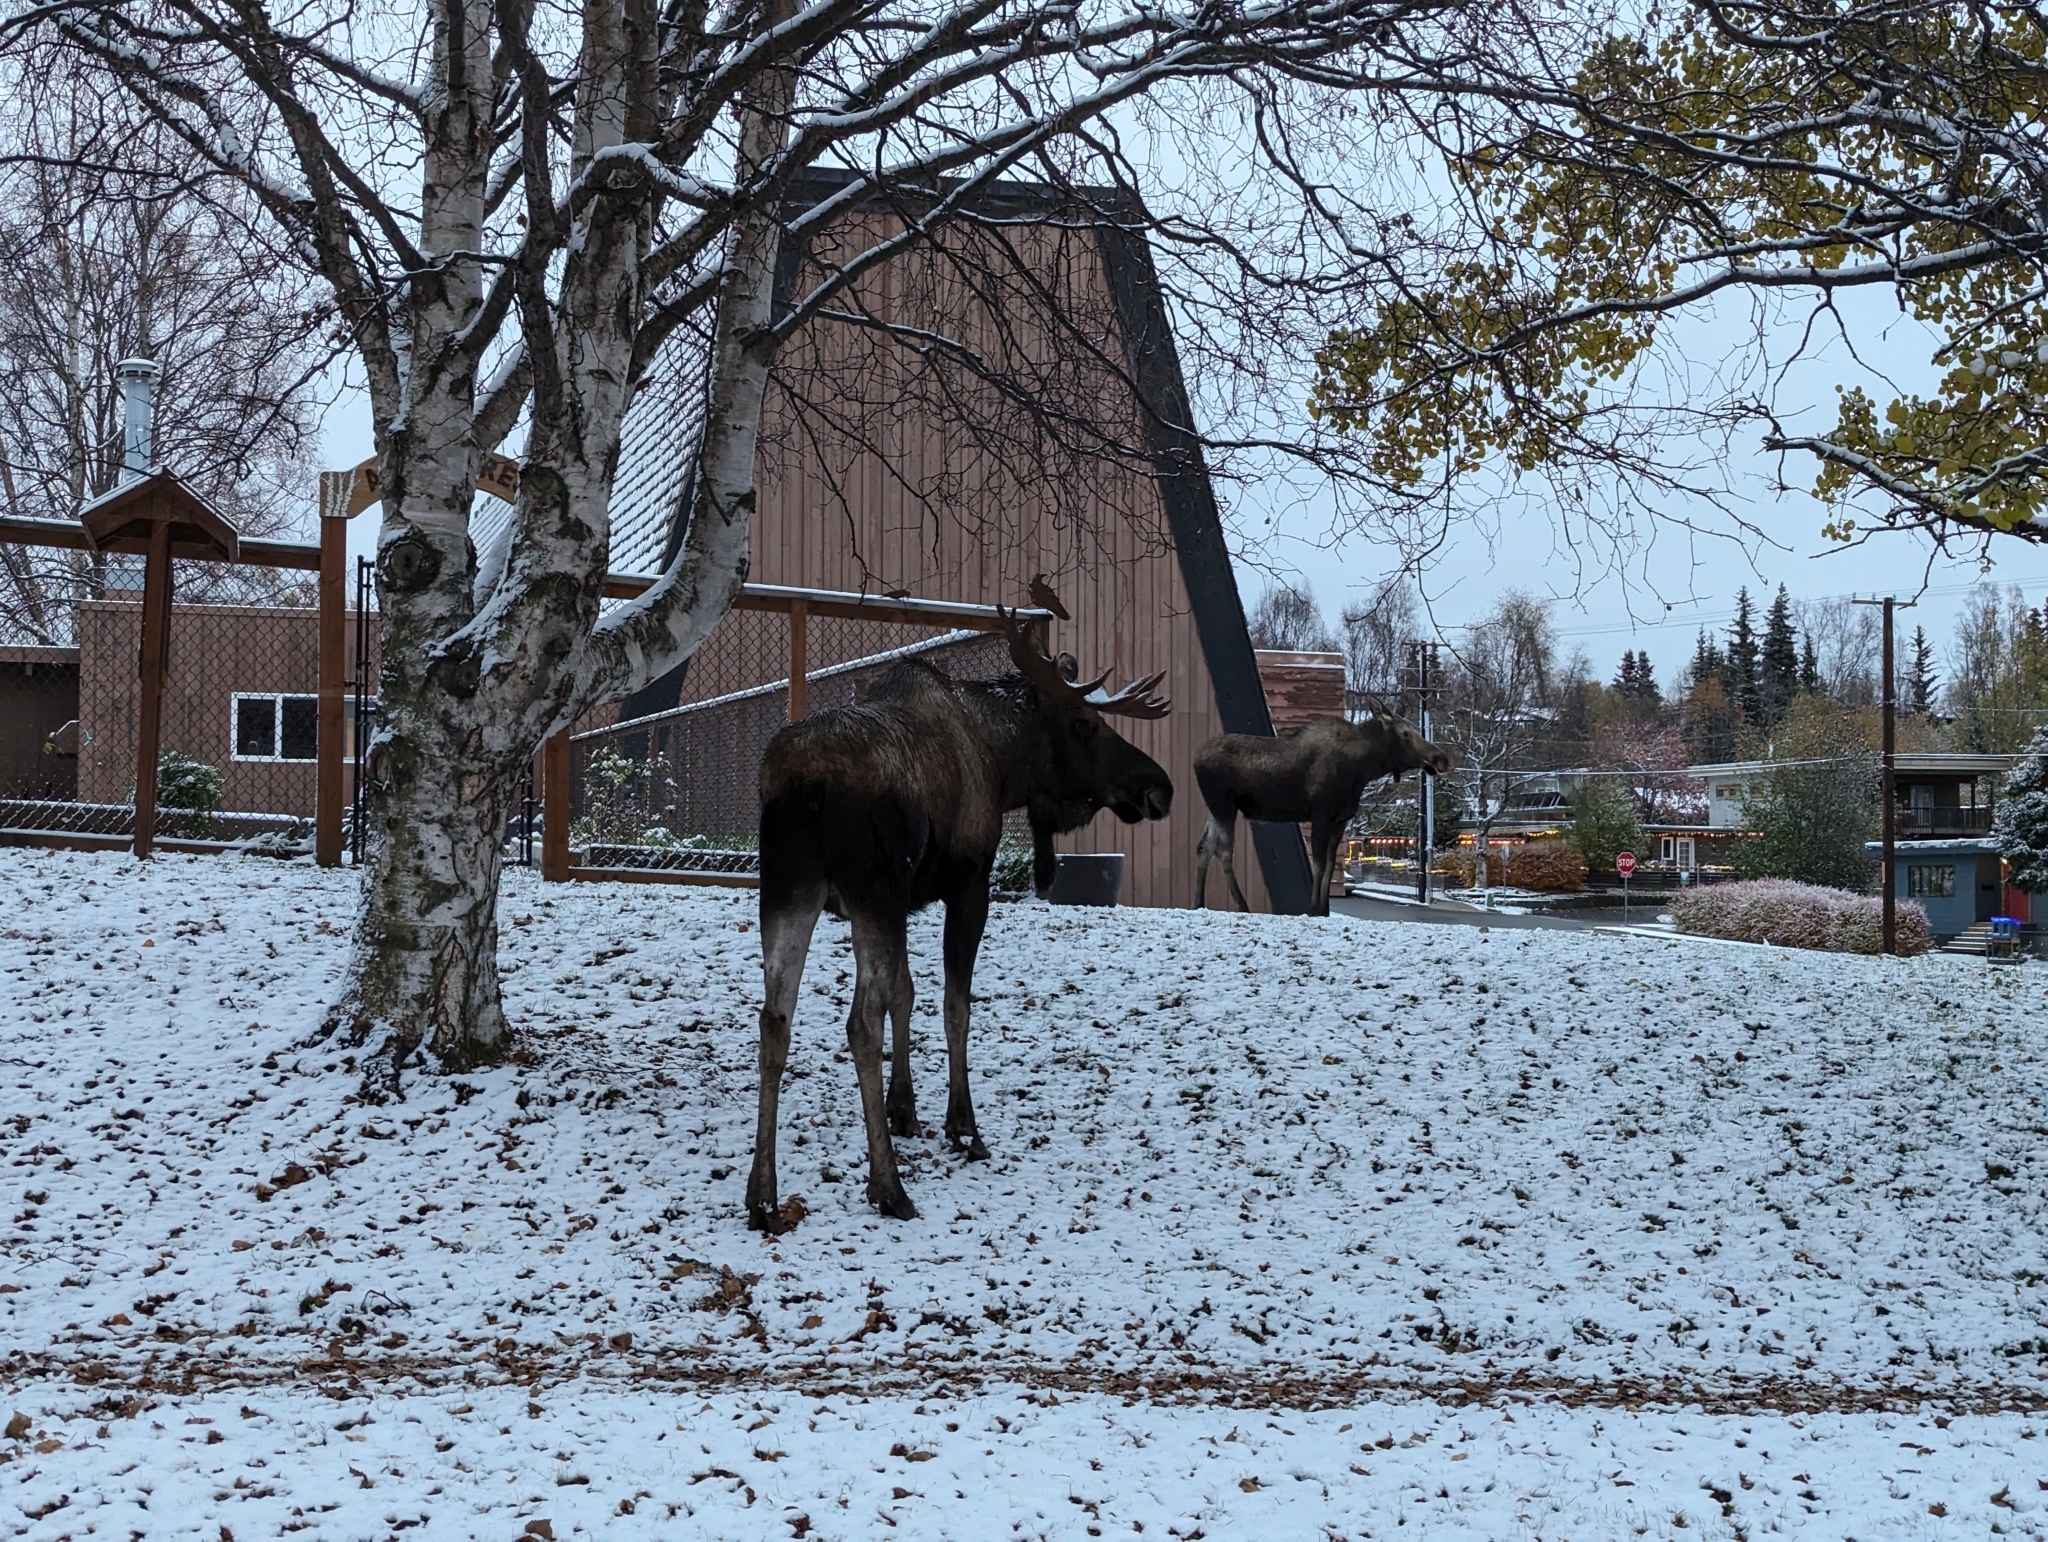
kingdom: Animalia
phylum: Chordata
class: Mammalia
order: Artiodactyla
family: Cervidae
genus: Alces
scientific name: Alces alces
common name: Moose
